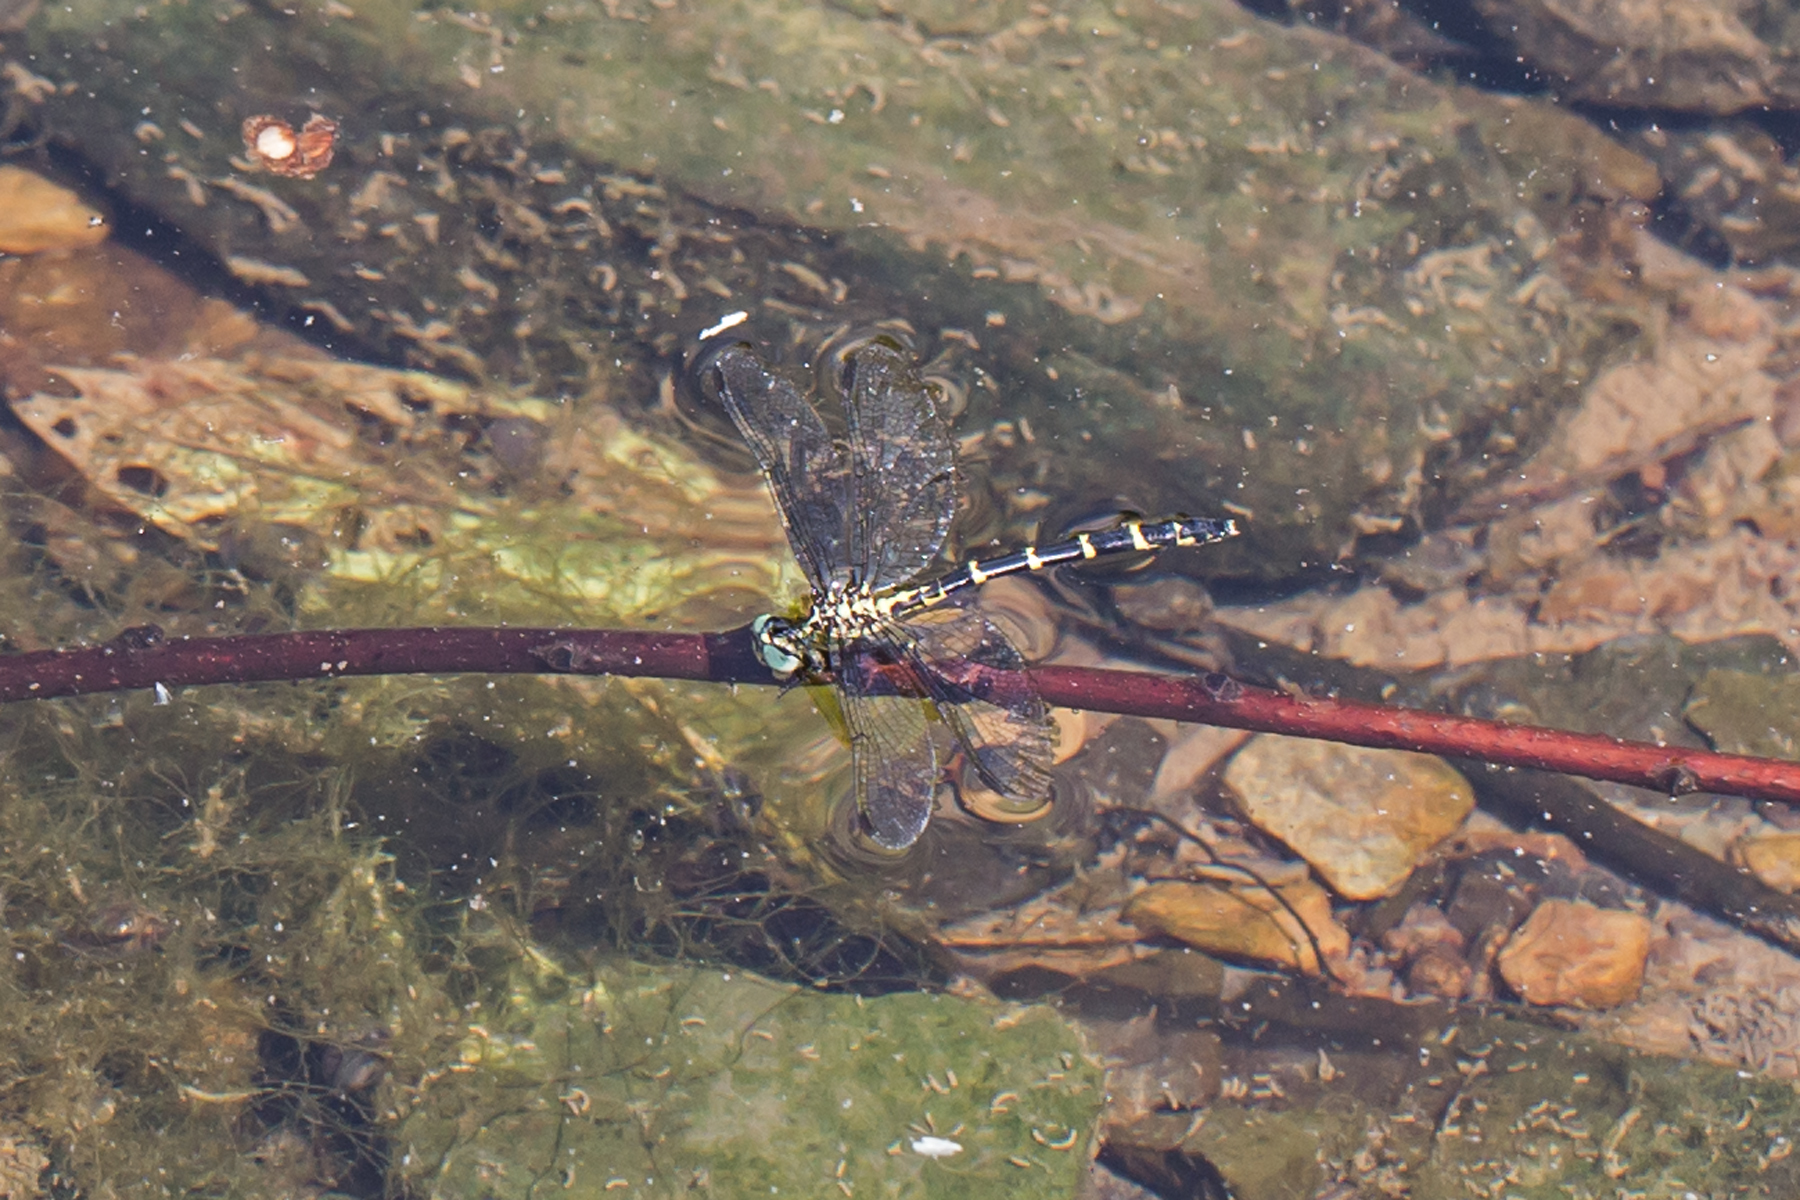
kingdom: Animalia
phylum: Arthropoda
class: Insecta
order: Odonata
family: Gomphidae
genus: Stylogomphus
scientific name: Stylogomphus albistylus
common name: Eastern least clubtail
